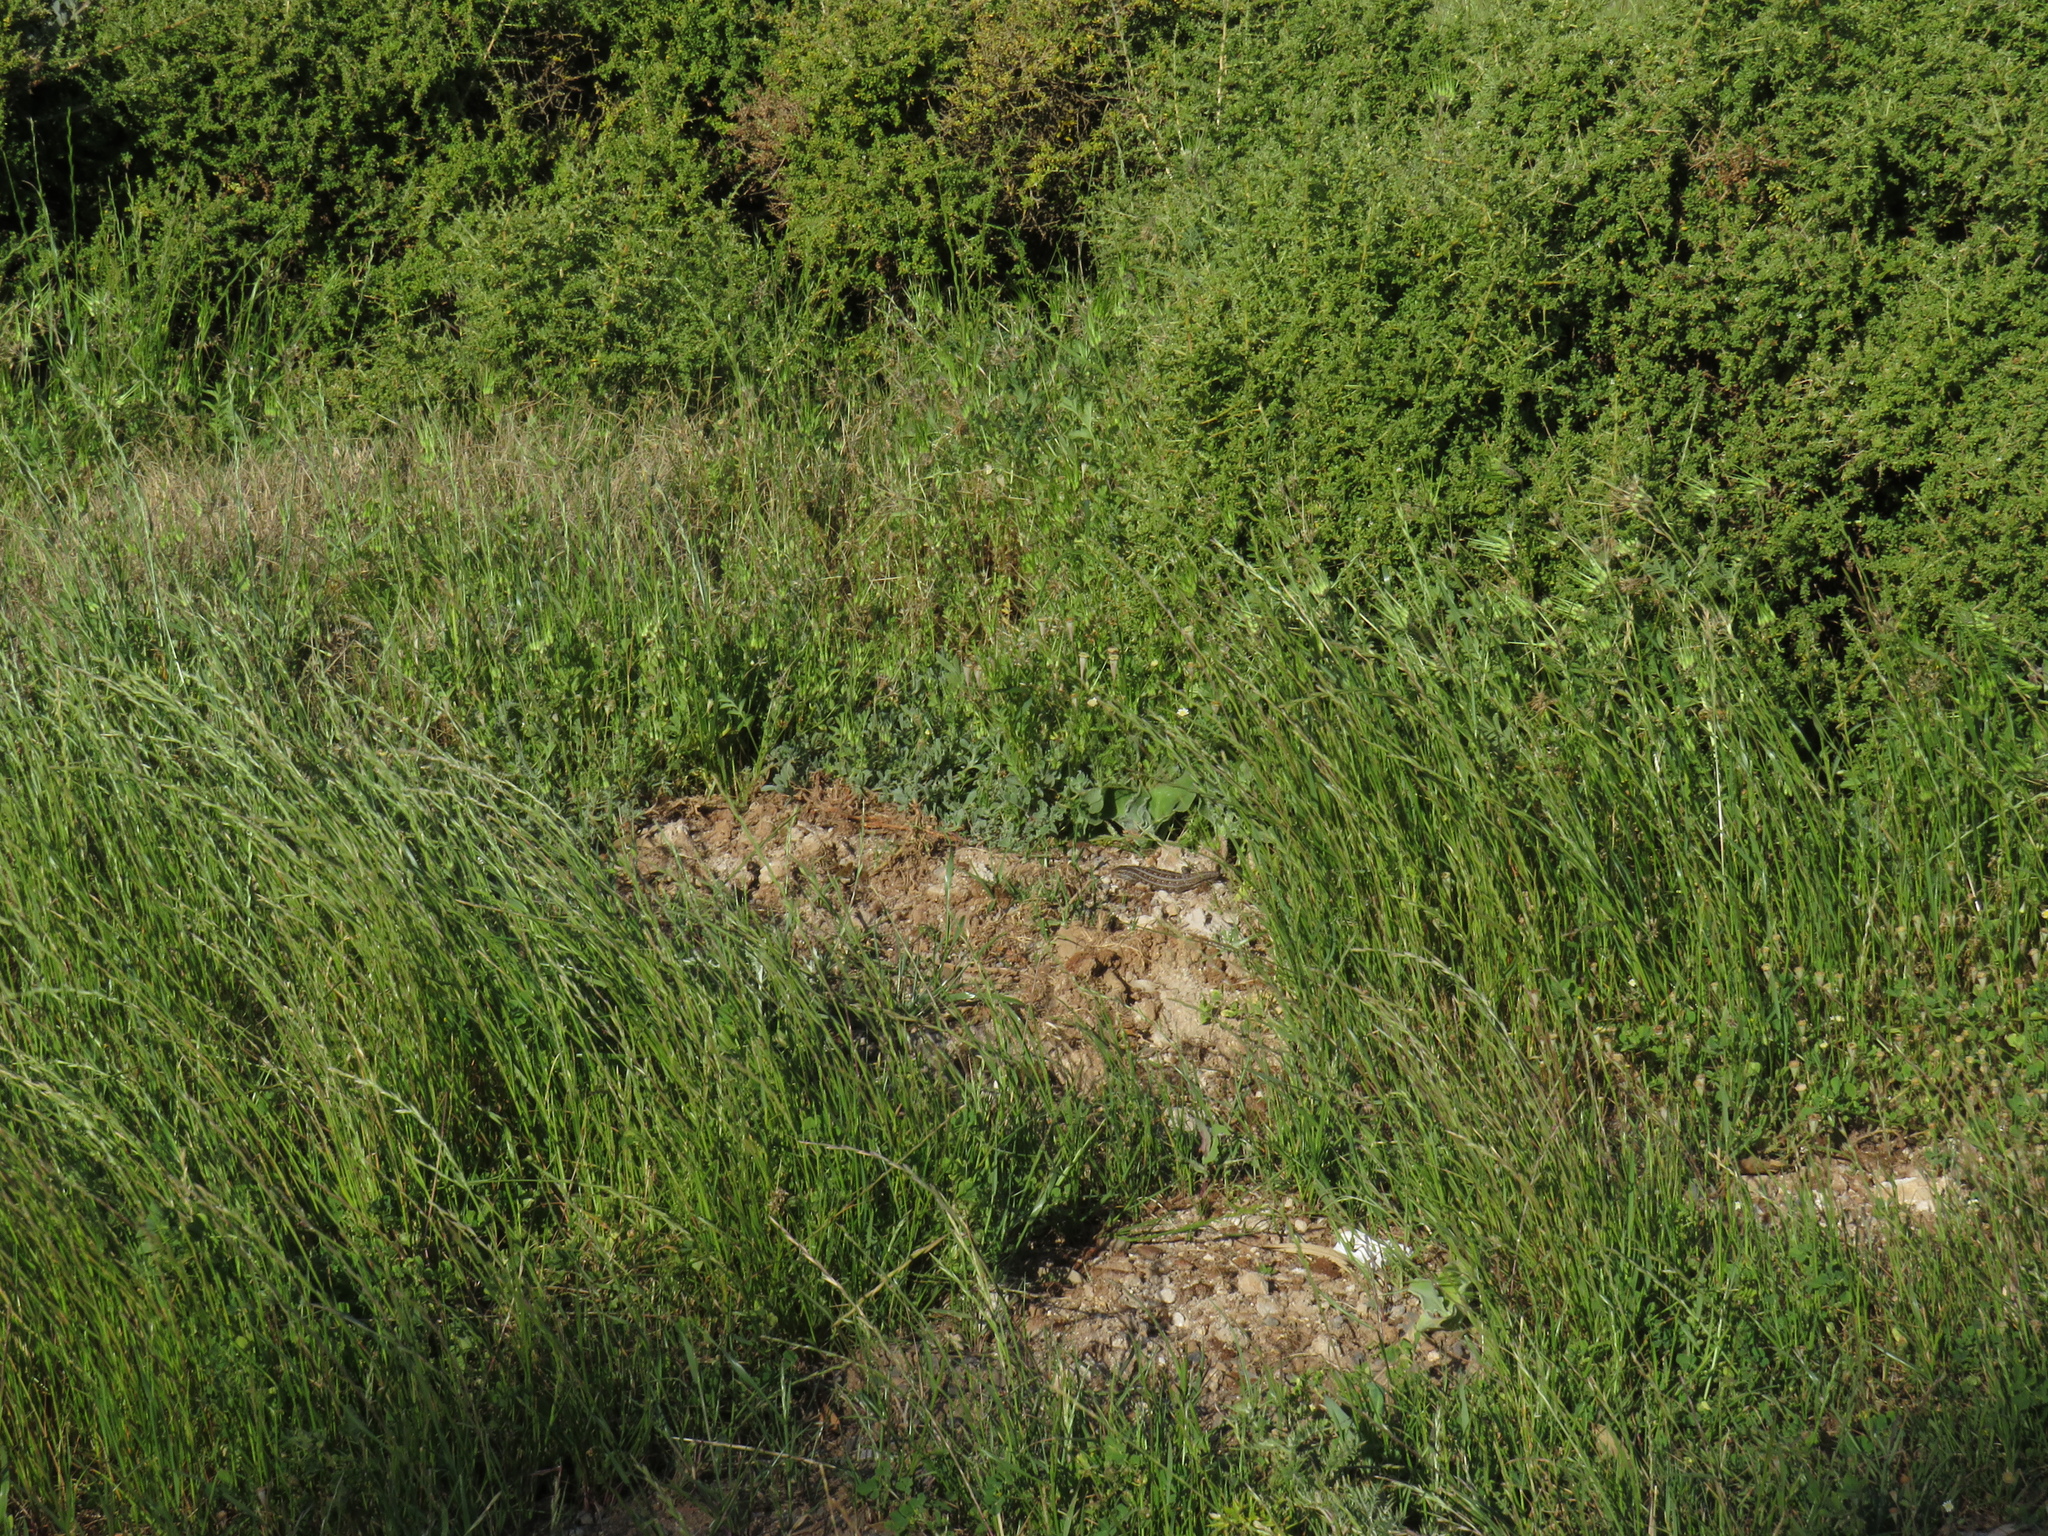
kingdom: Animalia
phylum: Chordata
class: Squamata
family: Scincidae
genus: Trachylepis
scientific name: Trachylepis capensis
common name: Cape skink
